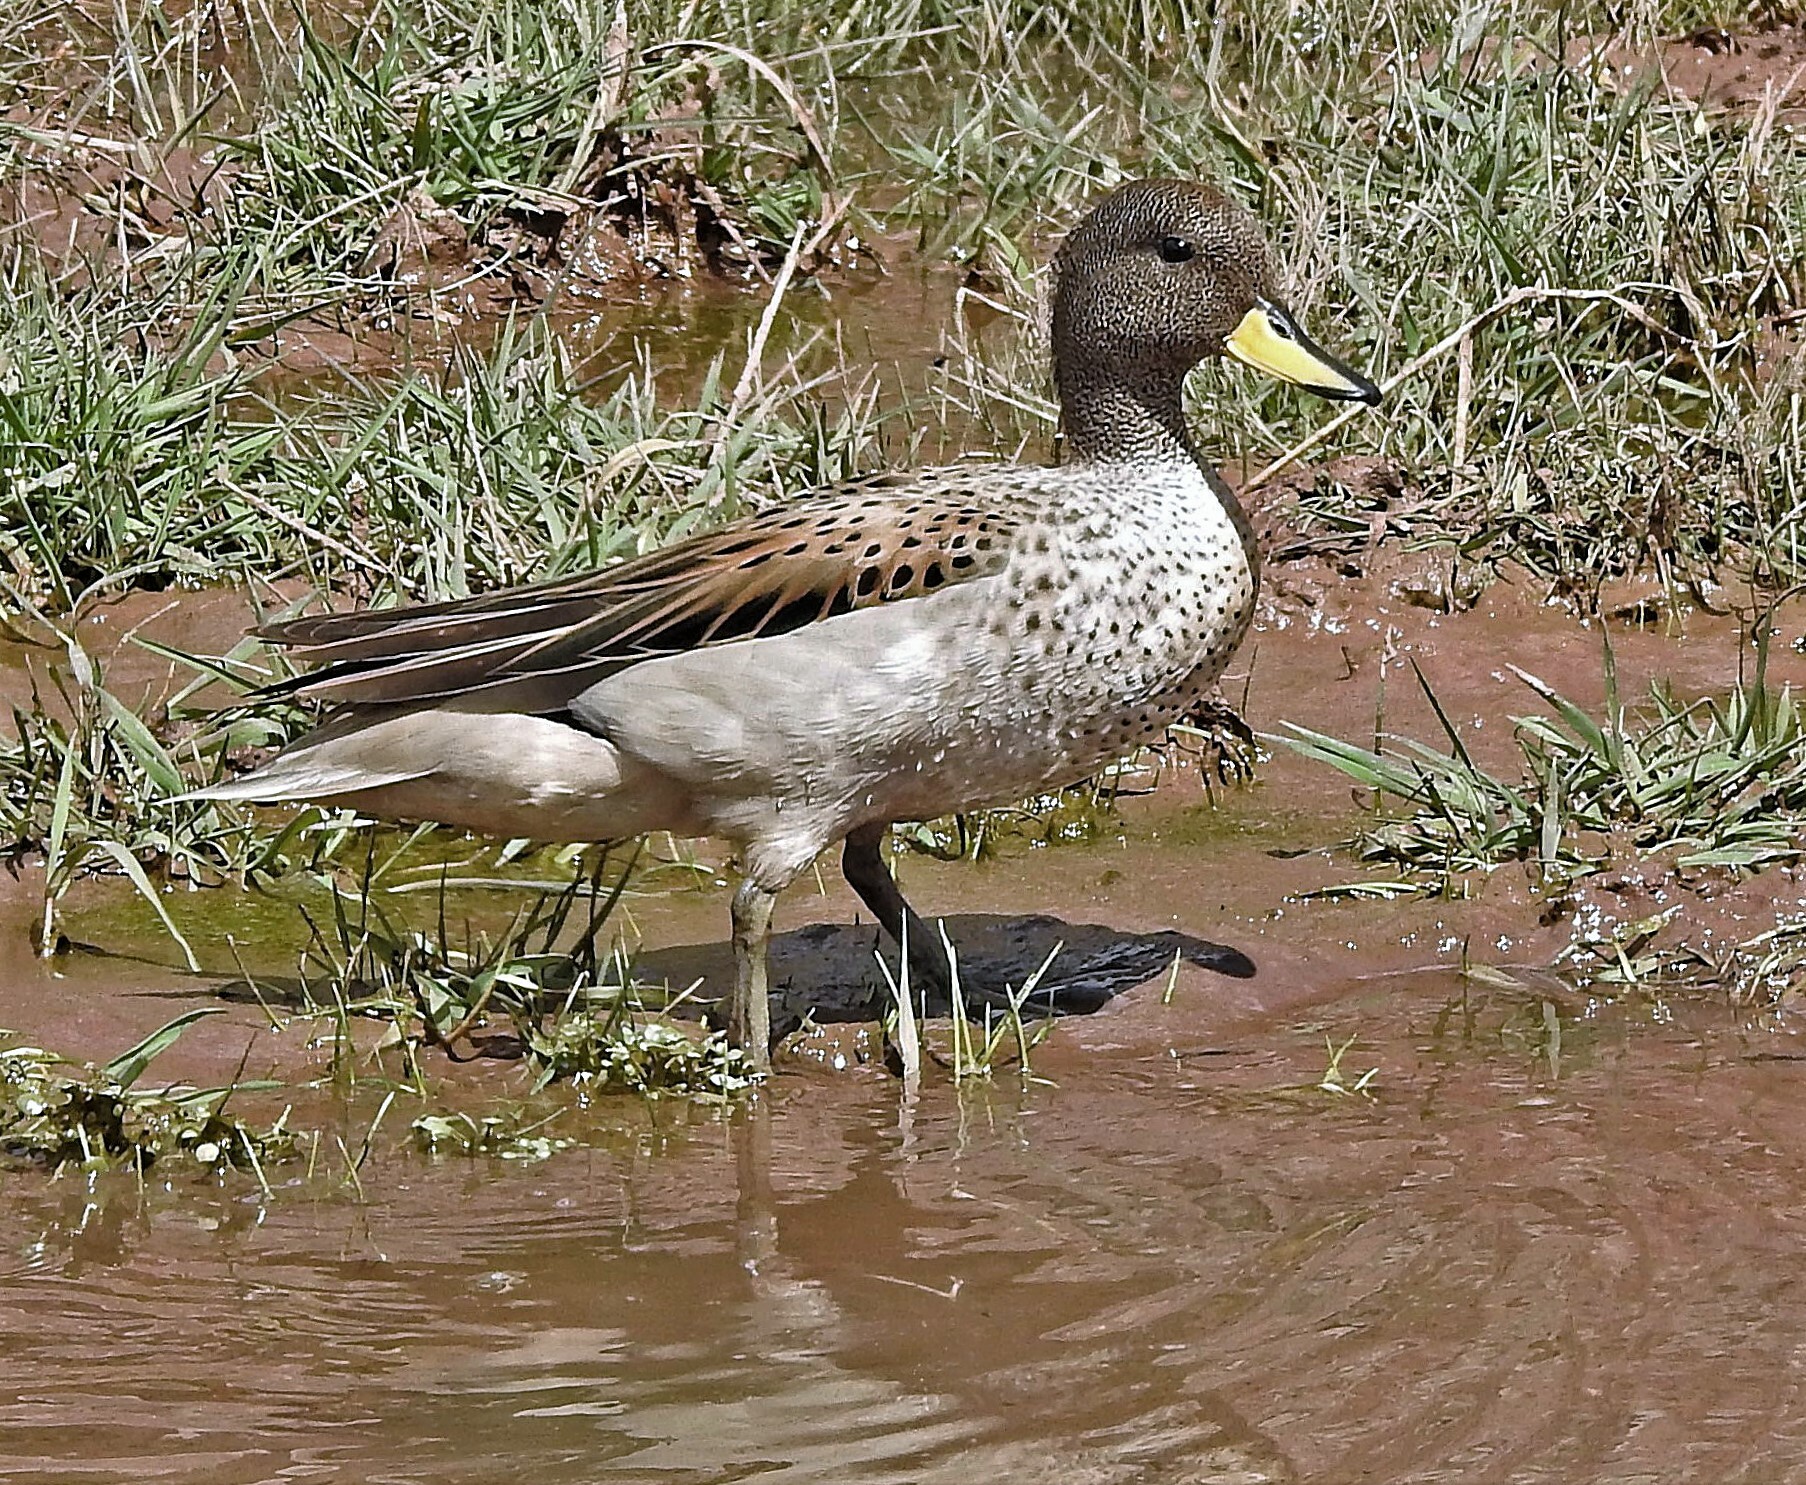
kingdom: Animalia
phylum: Chordata
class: Aves
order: Anseriformes
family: Anatidae
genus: Anas
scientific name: Anas flavirostris
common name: Yellow-billed teal
